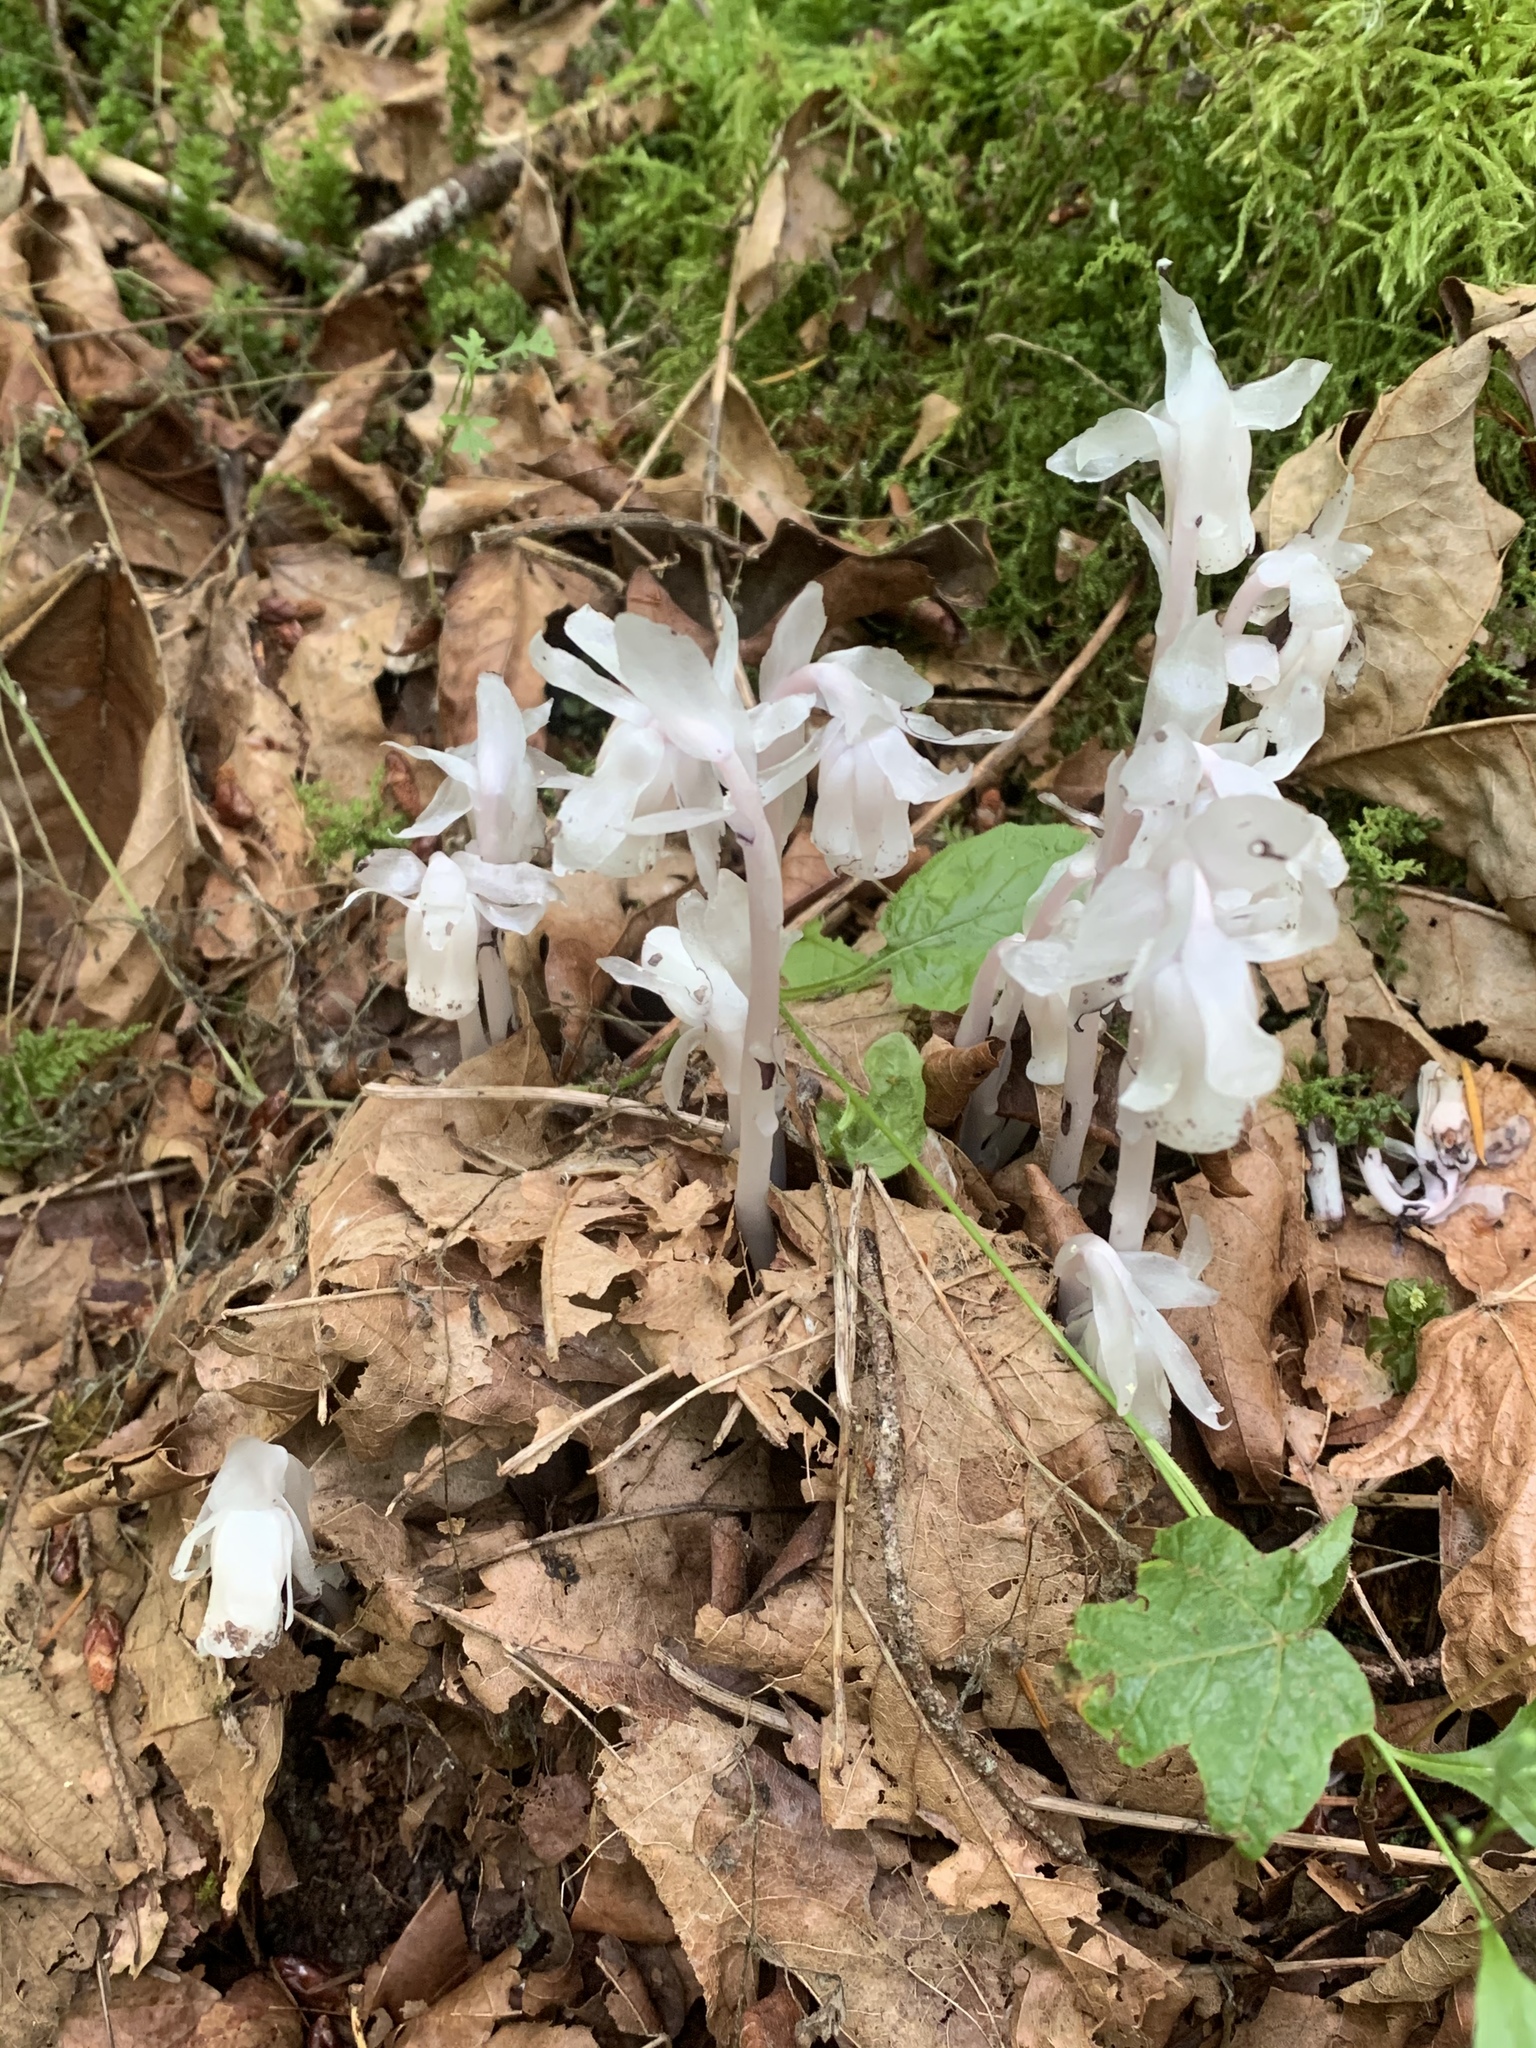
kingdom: Plantae
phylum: Tracheophyta
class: Magnoliopsida
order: Ericales
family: Ericaceae
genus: Monotropa
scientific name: Monotropa uniflora
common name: Convulsion root
